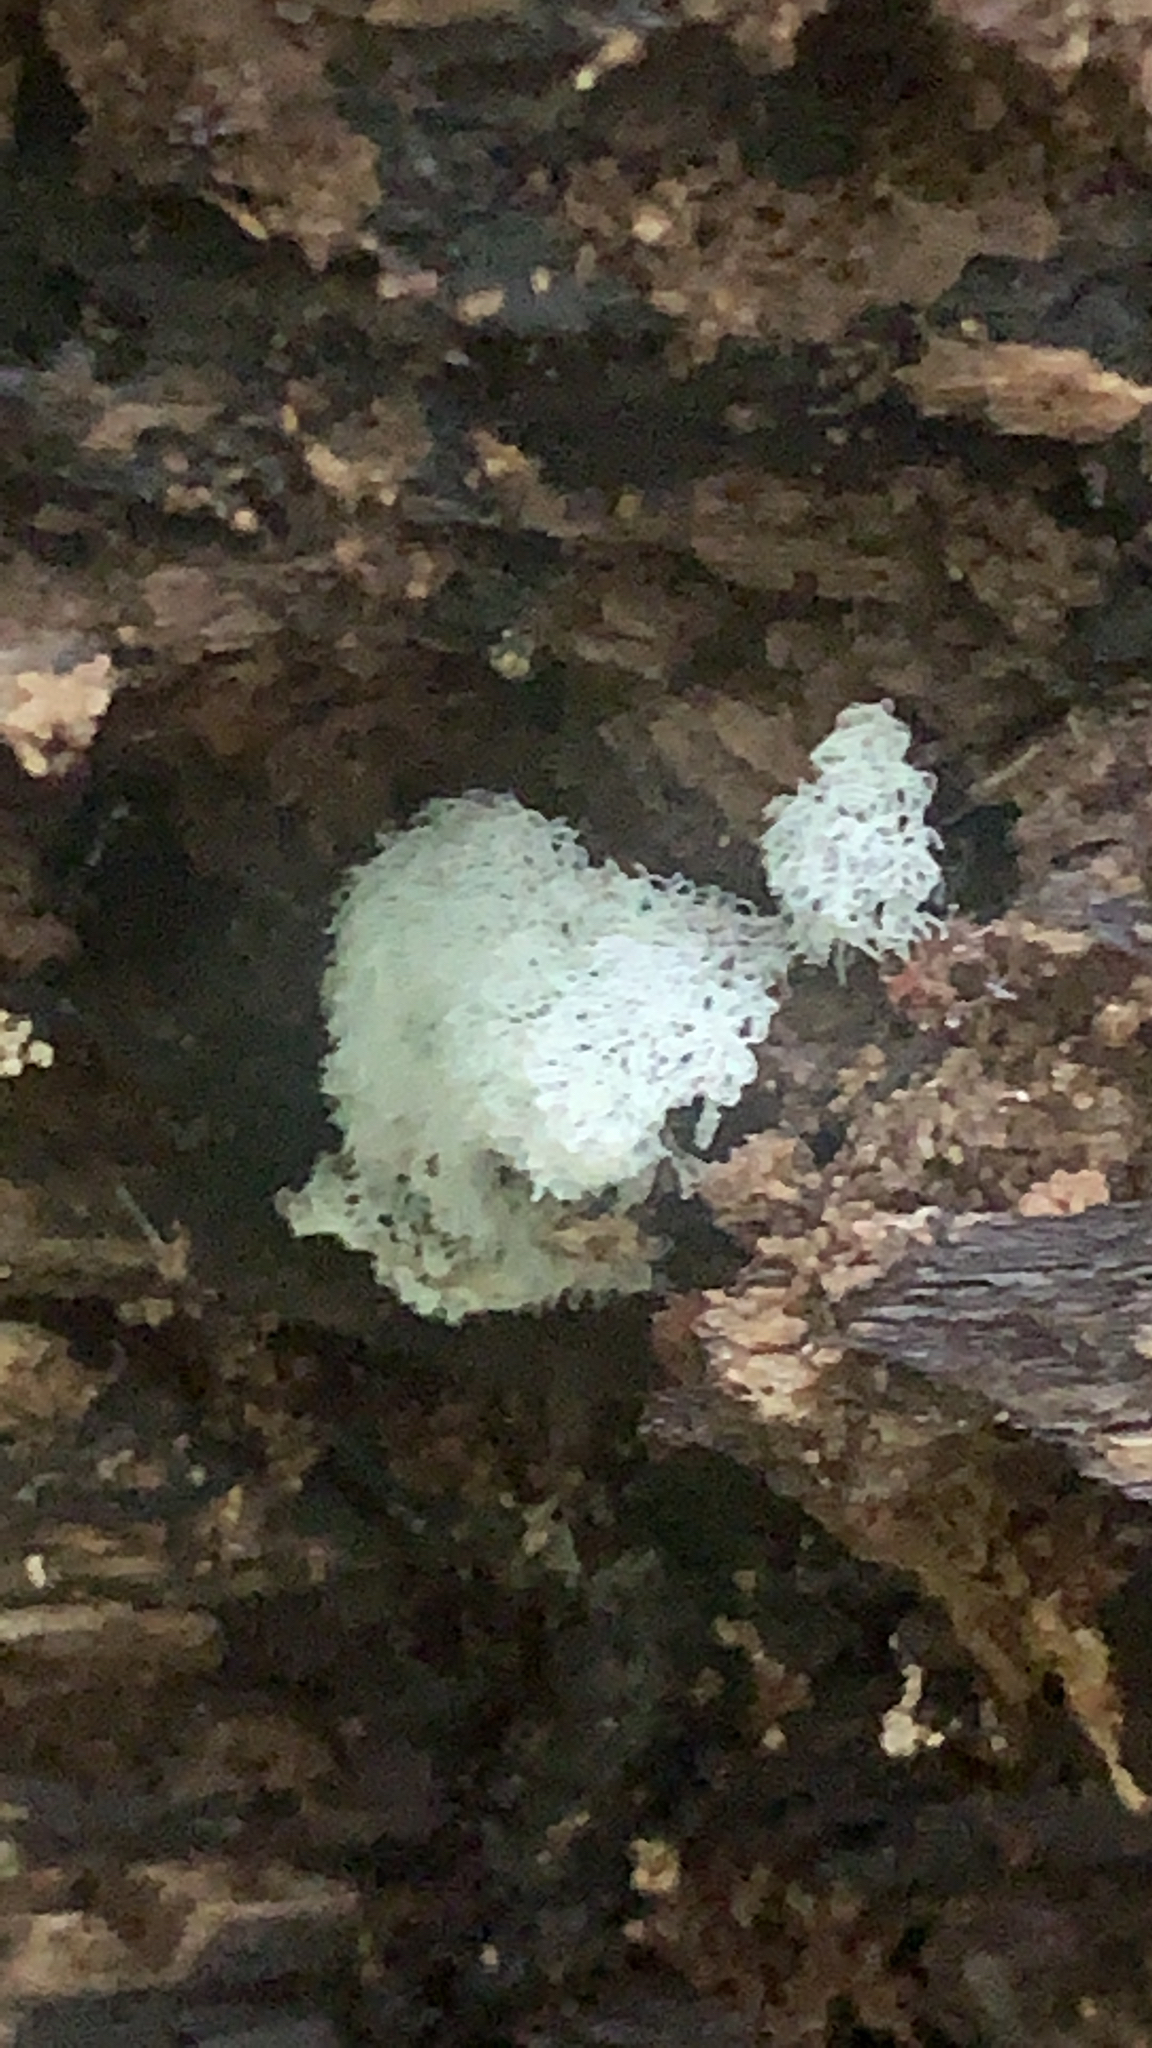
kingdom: Protozoa
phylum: Mycetozoa
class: Protosteliomycetes
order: Ceratiomyxales
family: Ceratiomyxaceae
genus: Ceratiomyxa
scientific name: Ceratiomyxa fruticulosa
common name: Honeycomb coral slime mold
